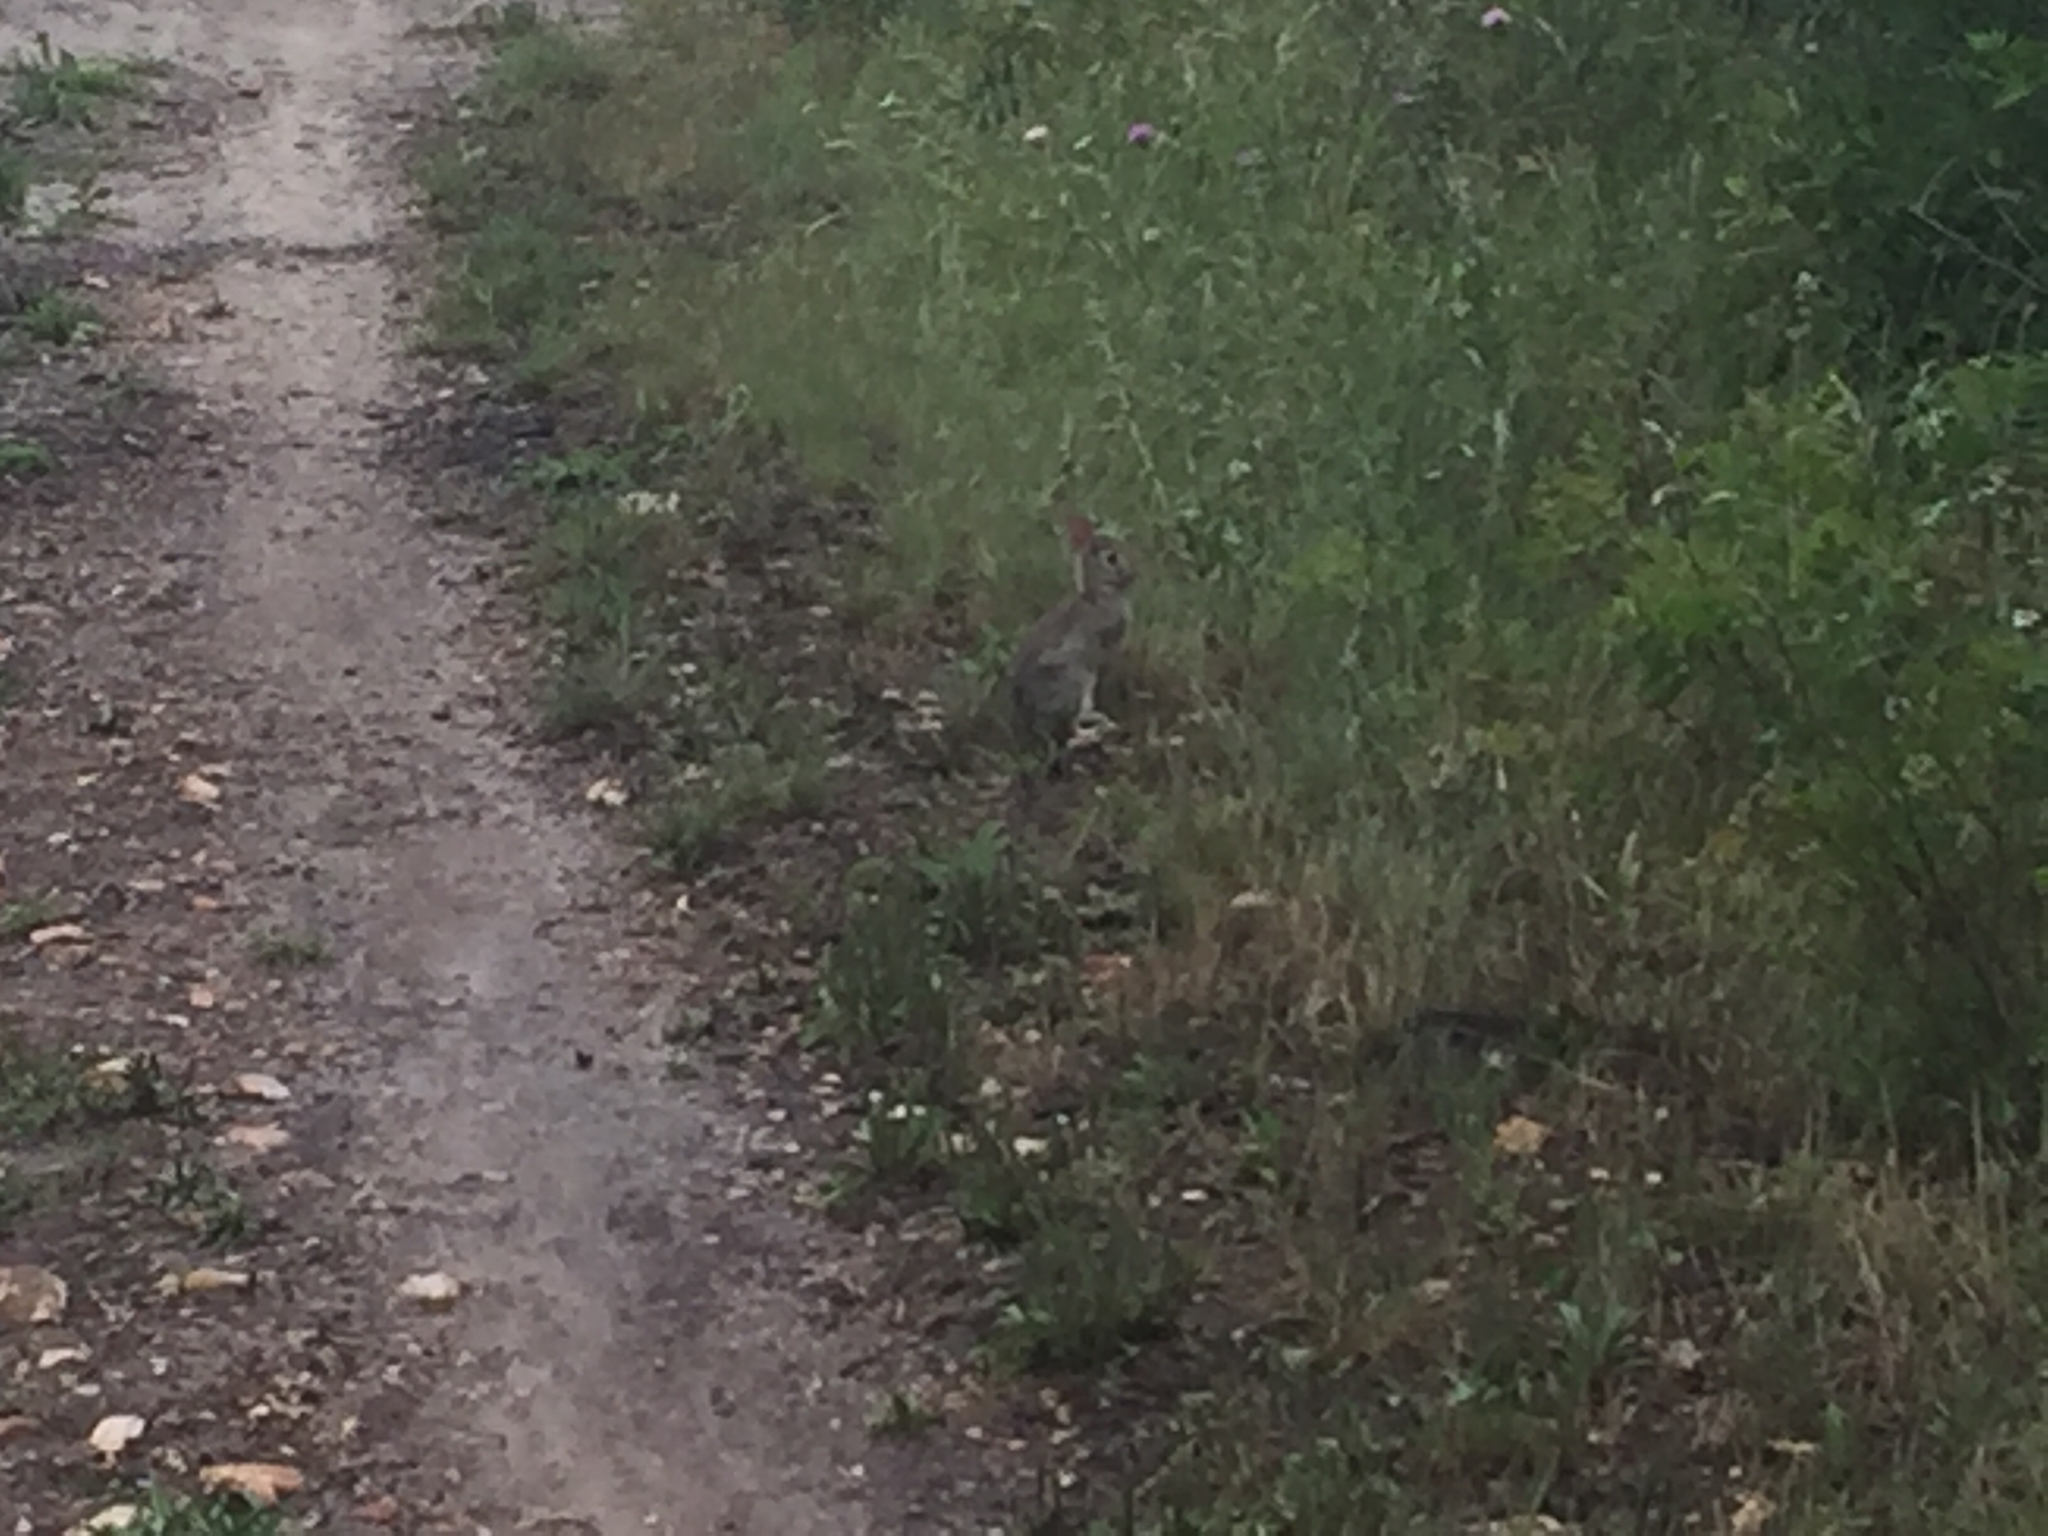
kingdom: Animalia
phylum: Chordata
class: Mammalia
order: Lagomorpha
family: Leporidae
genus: Sylvilagus
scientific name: Sylvilagus floridanus
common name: Eastern cottontail
